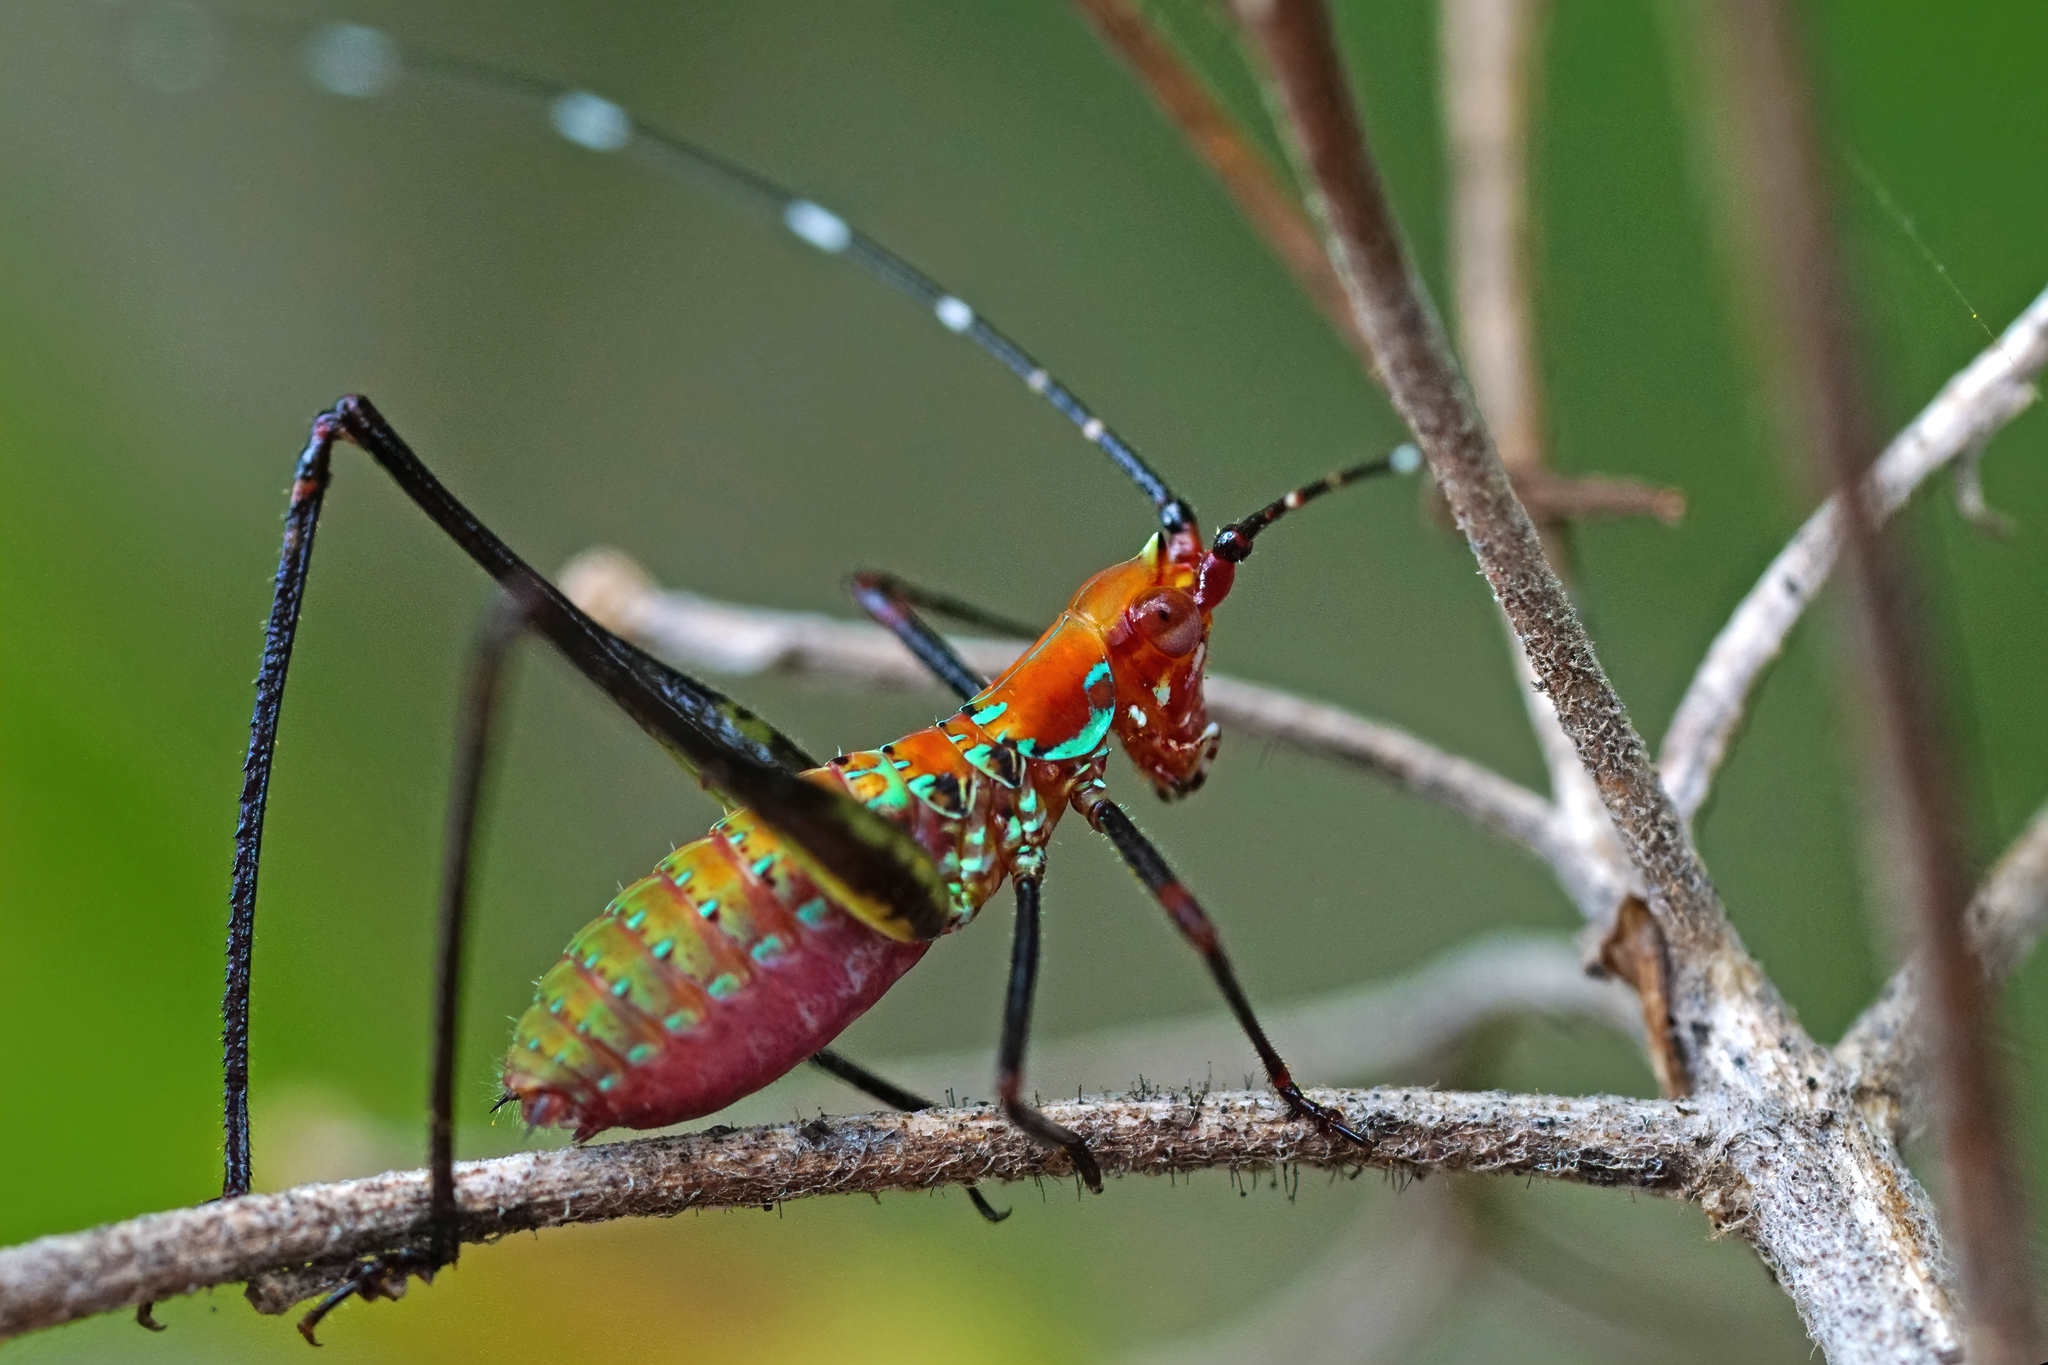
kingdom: Animalia
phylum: Arthropoda
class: Insecta
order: Orthoptera
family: Tettigoniidae
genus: Scudderia
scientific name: Scudderia cuneata
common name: Southeastern bush katydid
